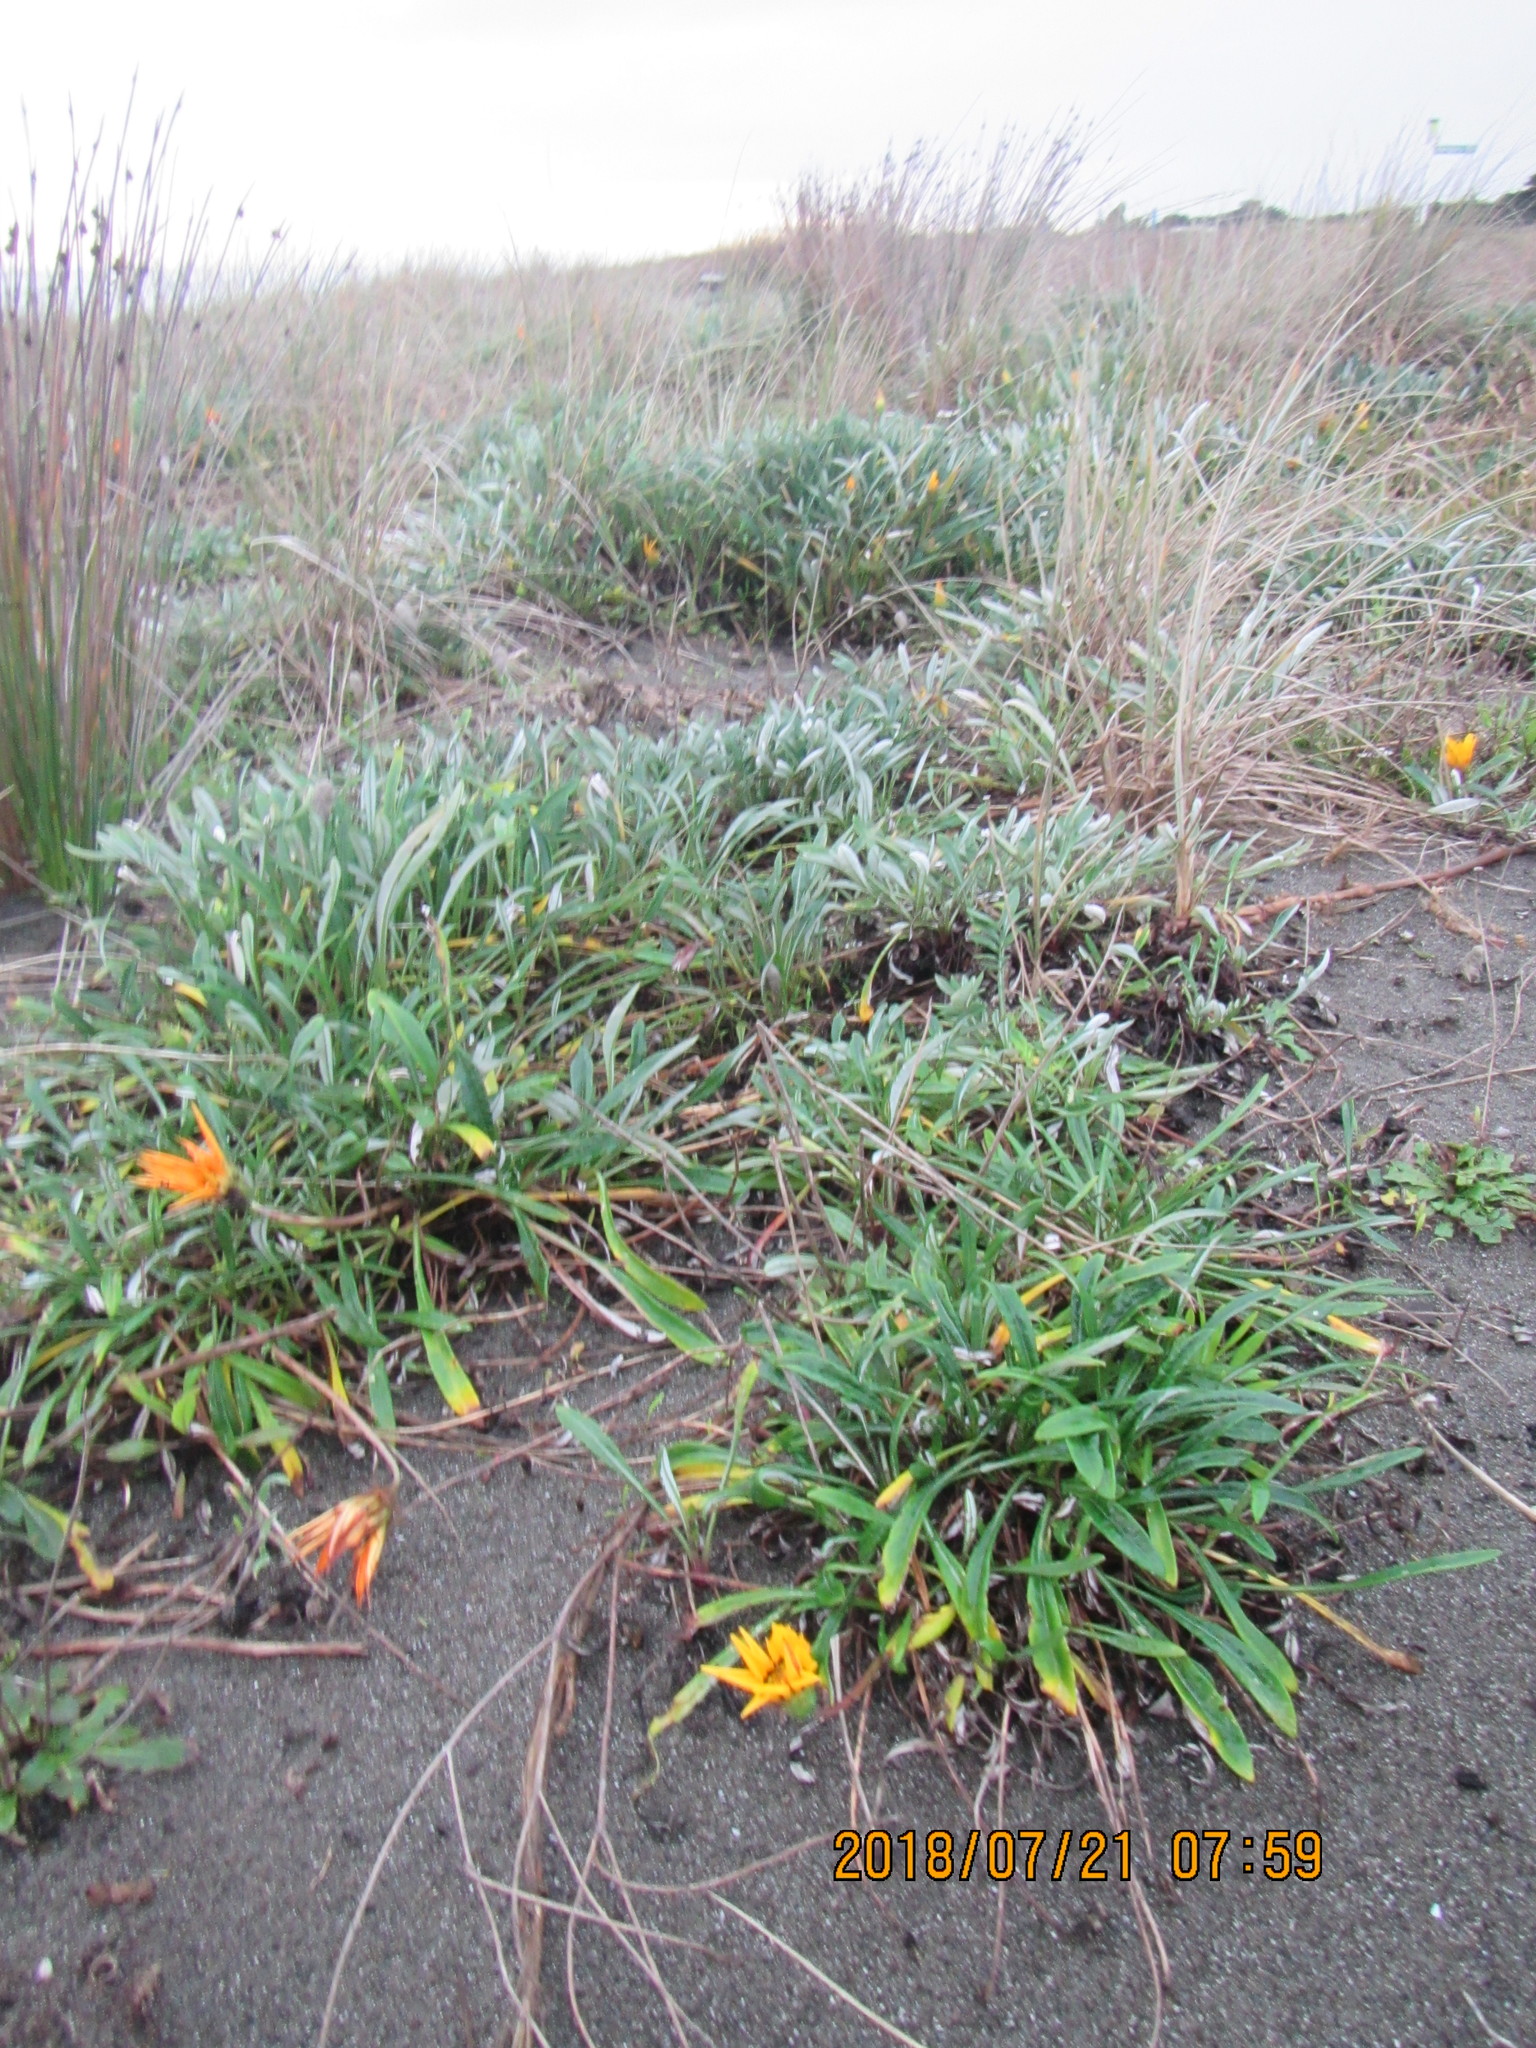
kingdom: Plantae
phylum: Tracheophyta
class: Magnoliopsida
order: Asterales
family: Asteraceae
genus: Gazania
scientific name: Gazania
